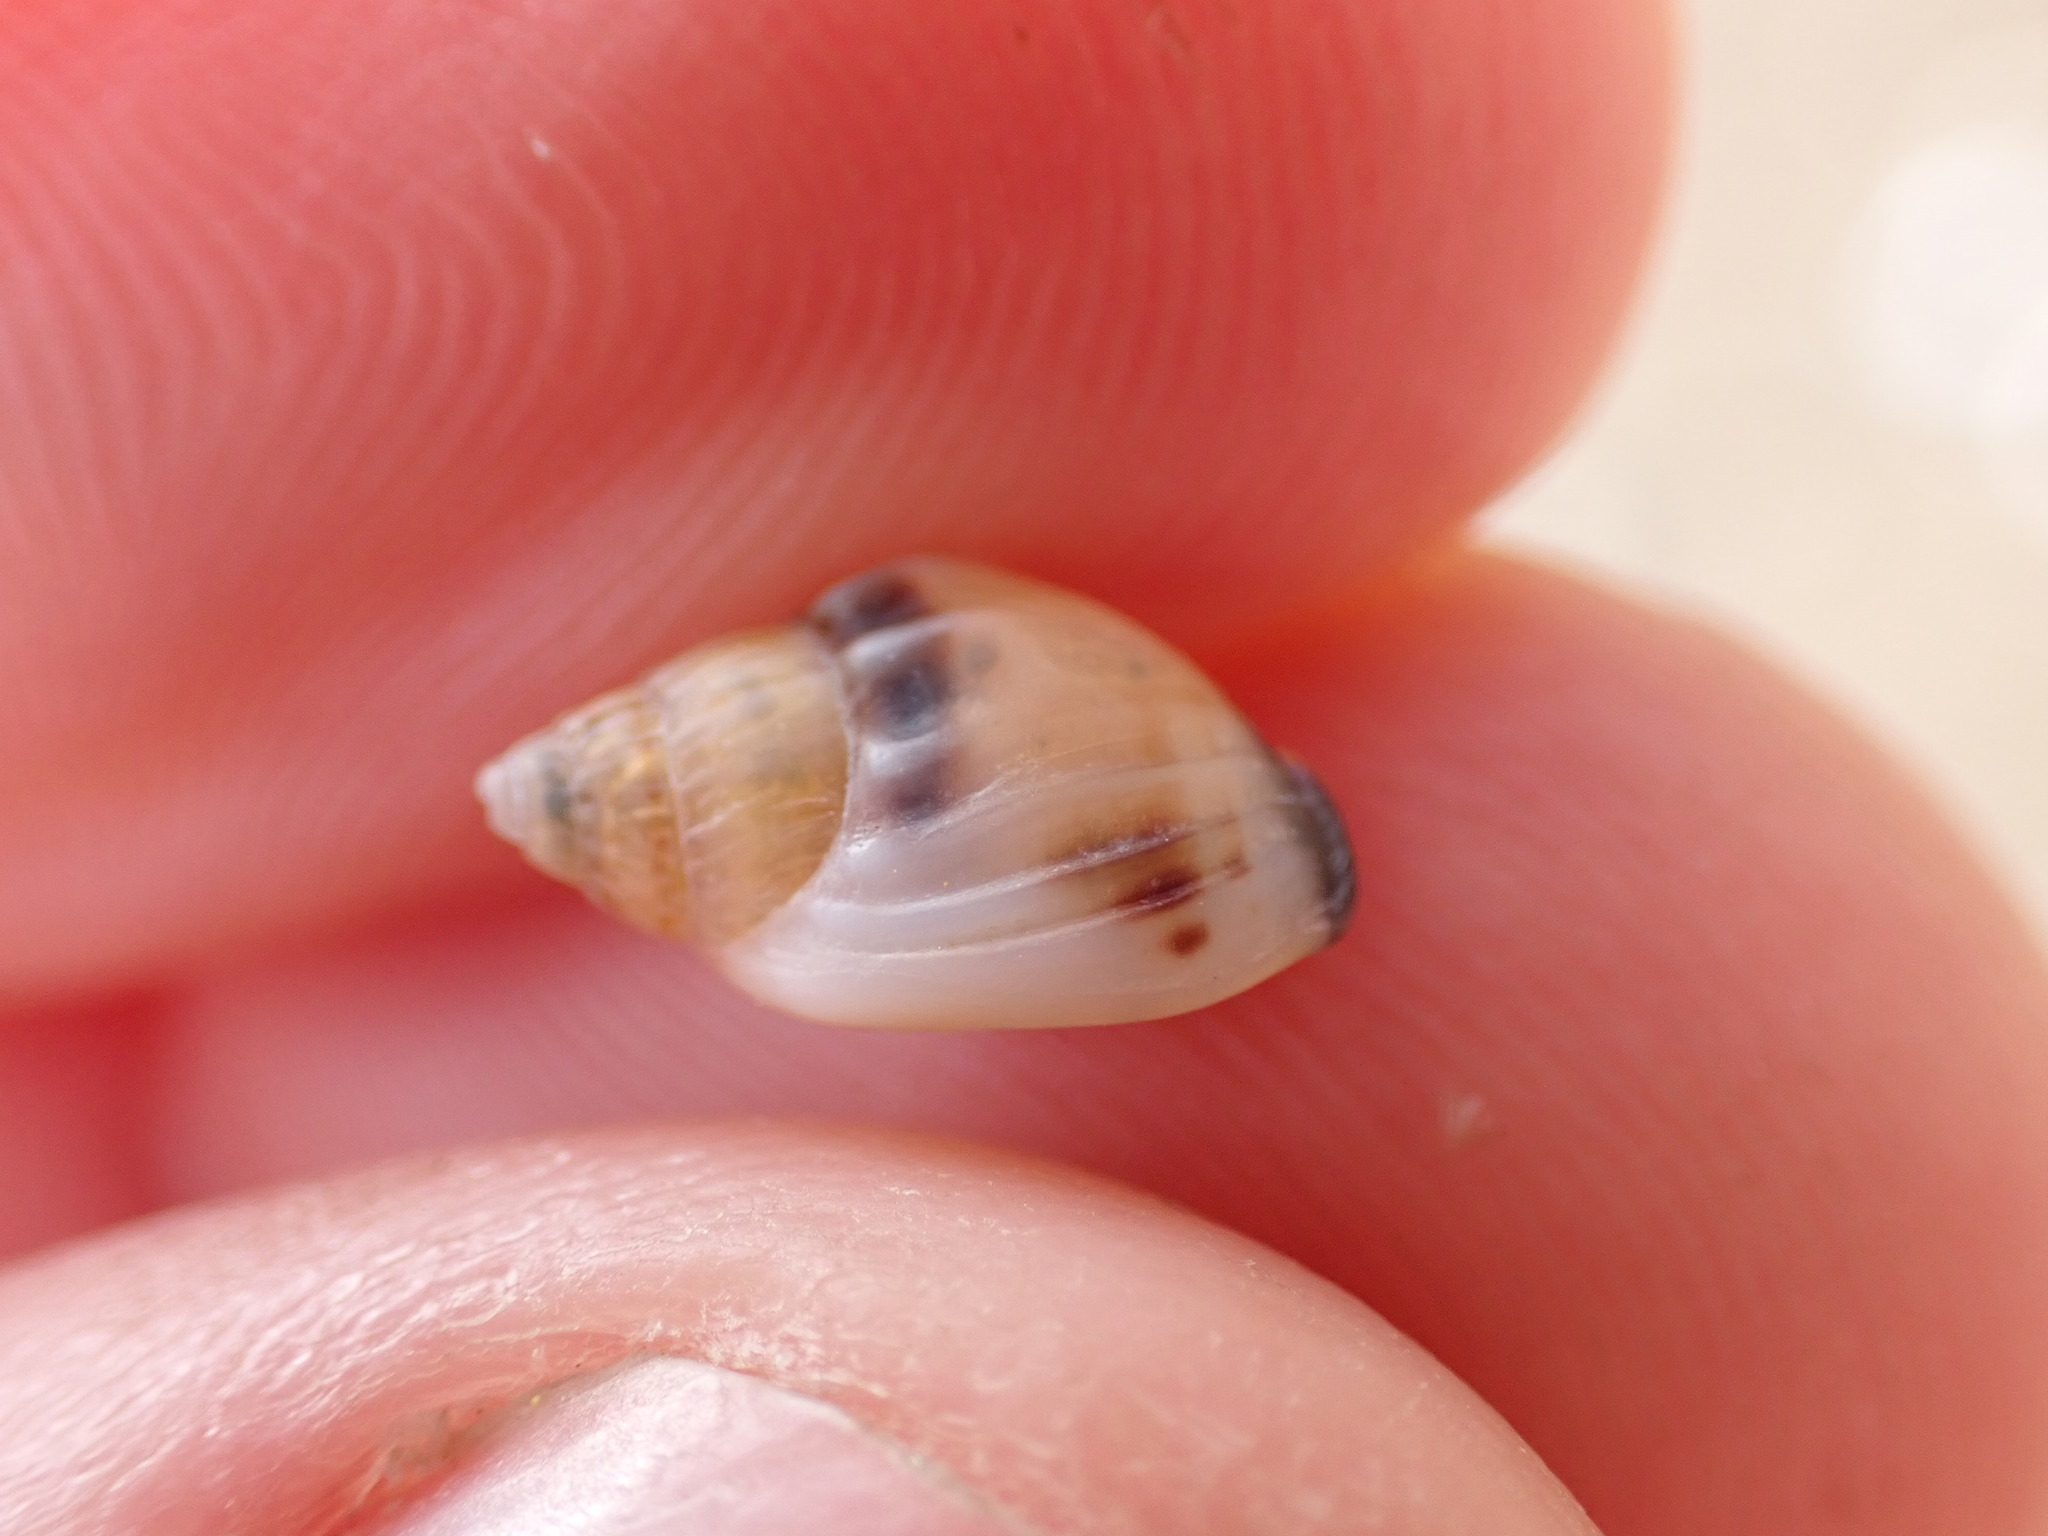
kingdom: Animalia
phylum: Mollusca
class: Gastropoda
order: Neogastropoda
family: Nassariidae
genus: Tritia
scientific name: Tritia burchardi
